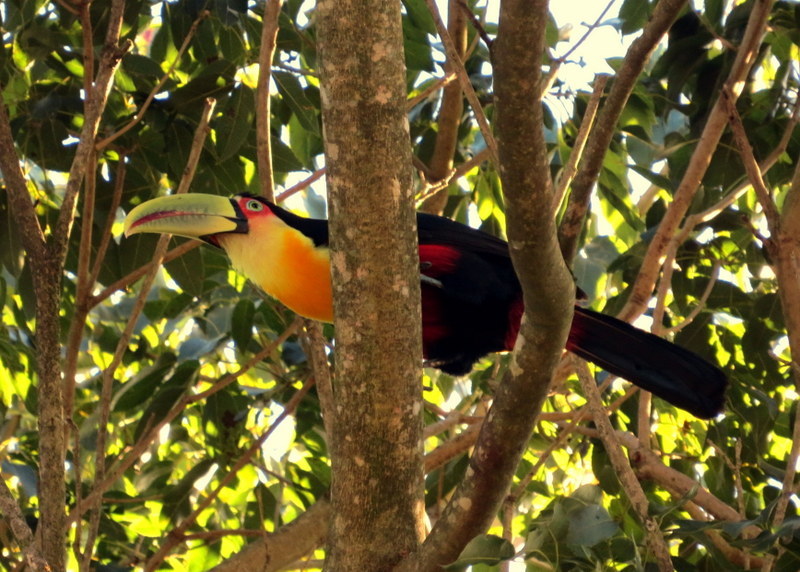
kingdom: Animalia
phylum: Chordata
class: Aves
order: Piciformes
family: Ramphastidae
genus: Ramphastos
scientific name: Ramphastos dicolorus
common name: Green-billed toucan
